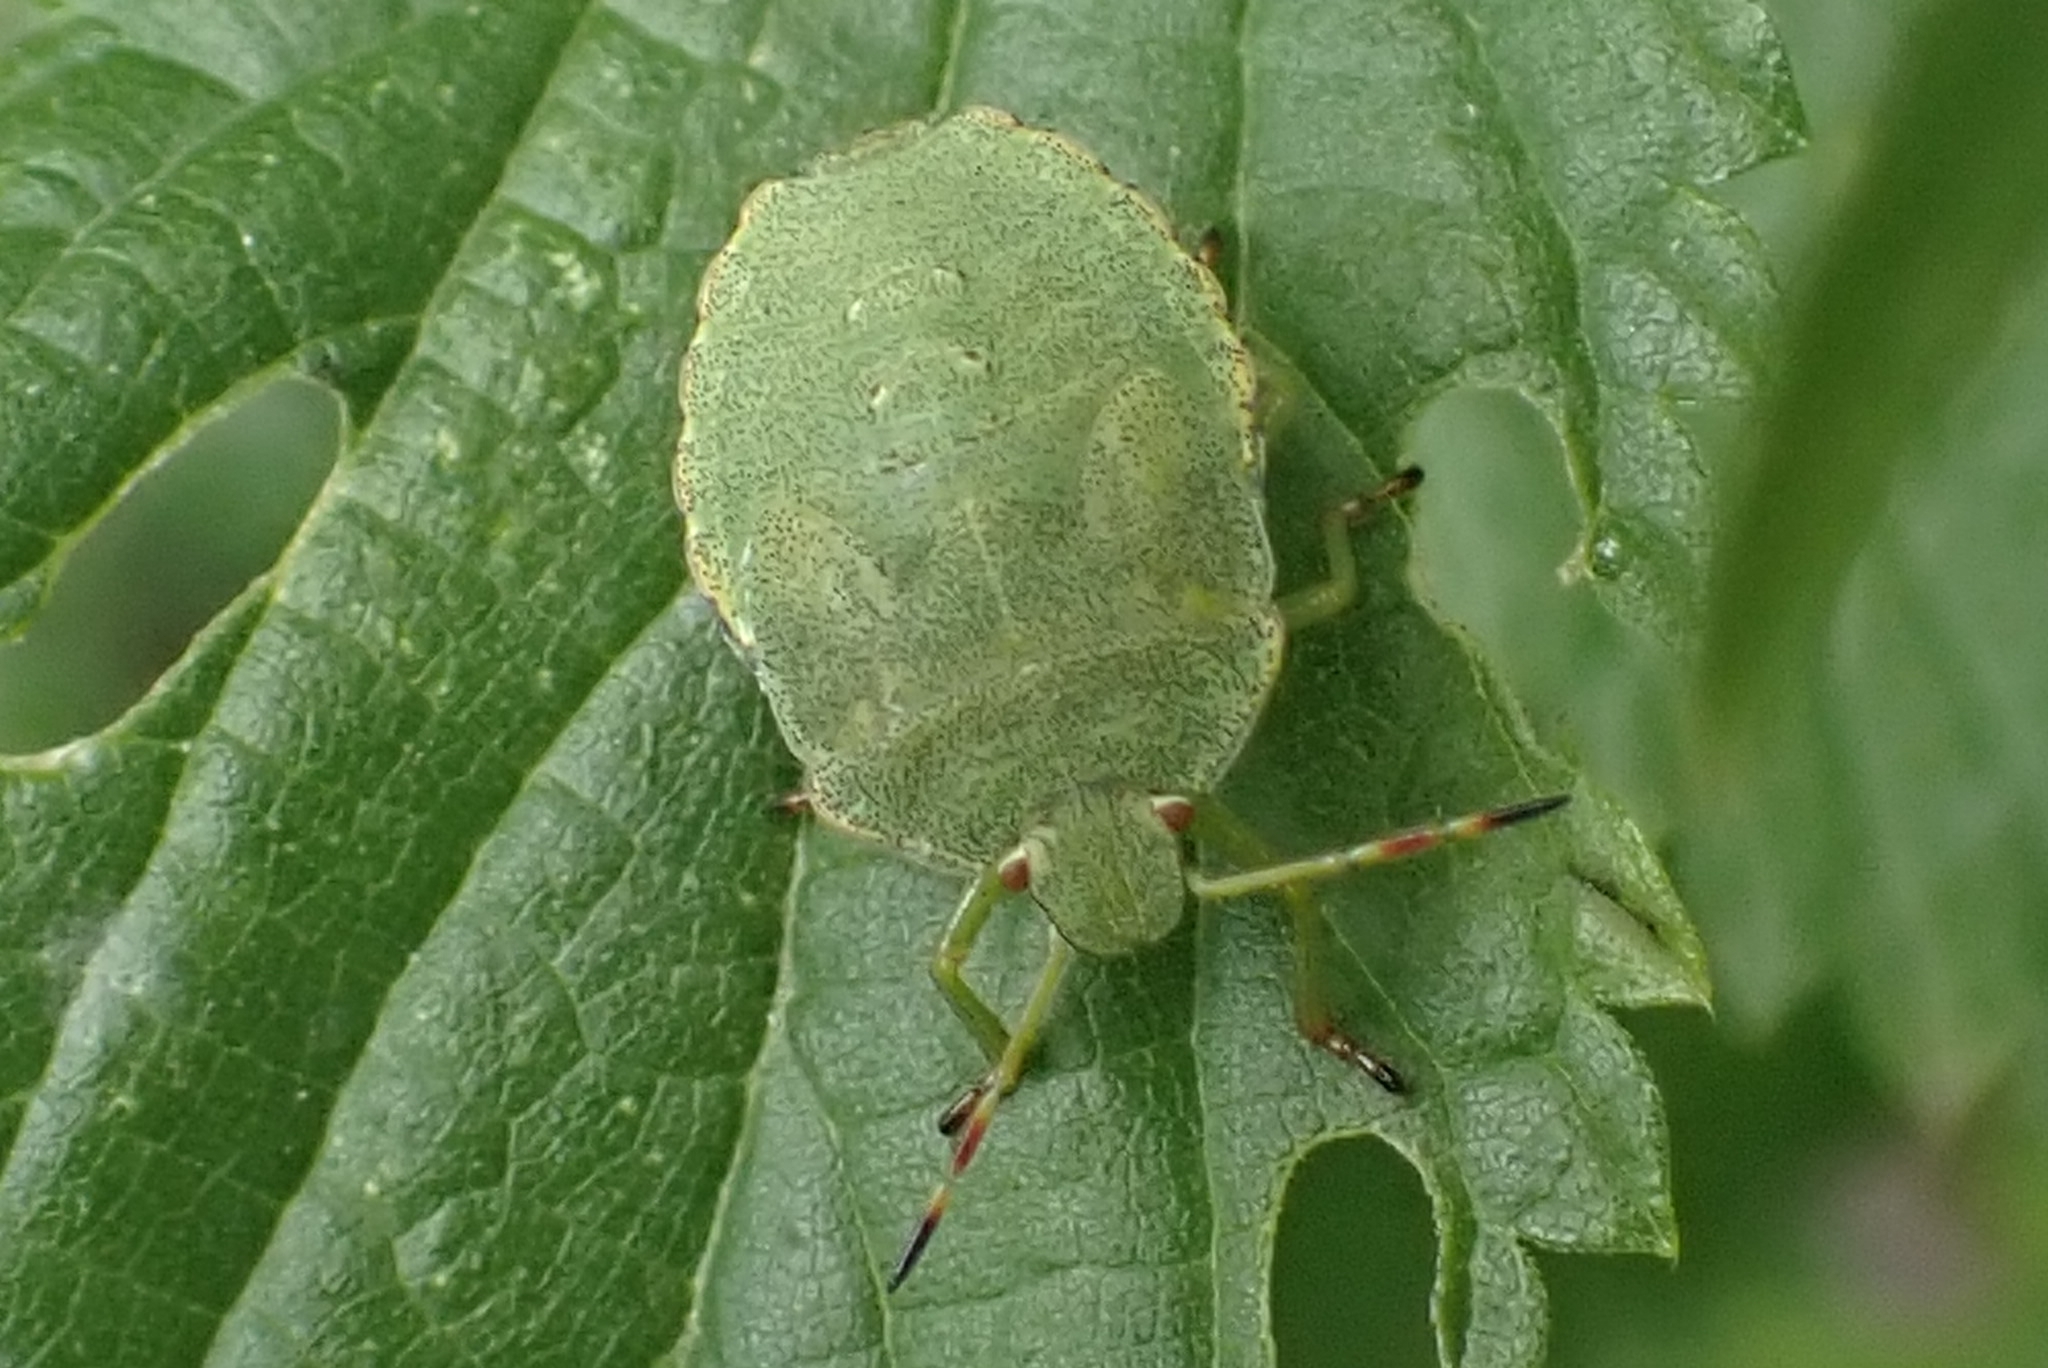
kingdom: Animalia
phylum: Arthropoda
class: Insecta
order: Hemiptera
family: Pentatomidae
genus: Palomena
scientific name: Palomena prasina
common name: Green shieldbug
